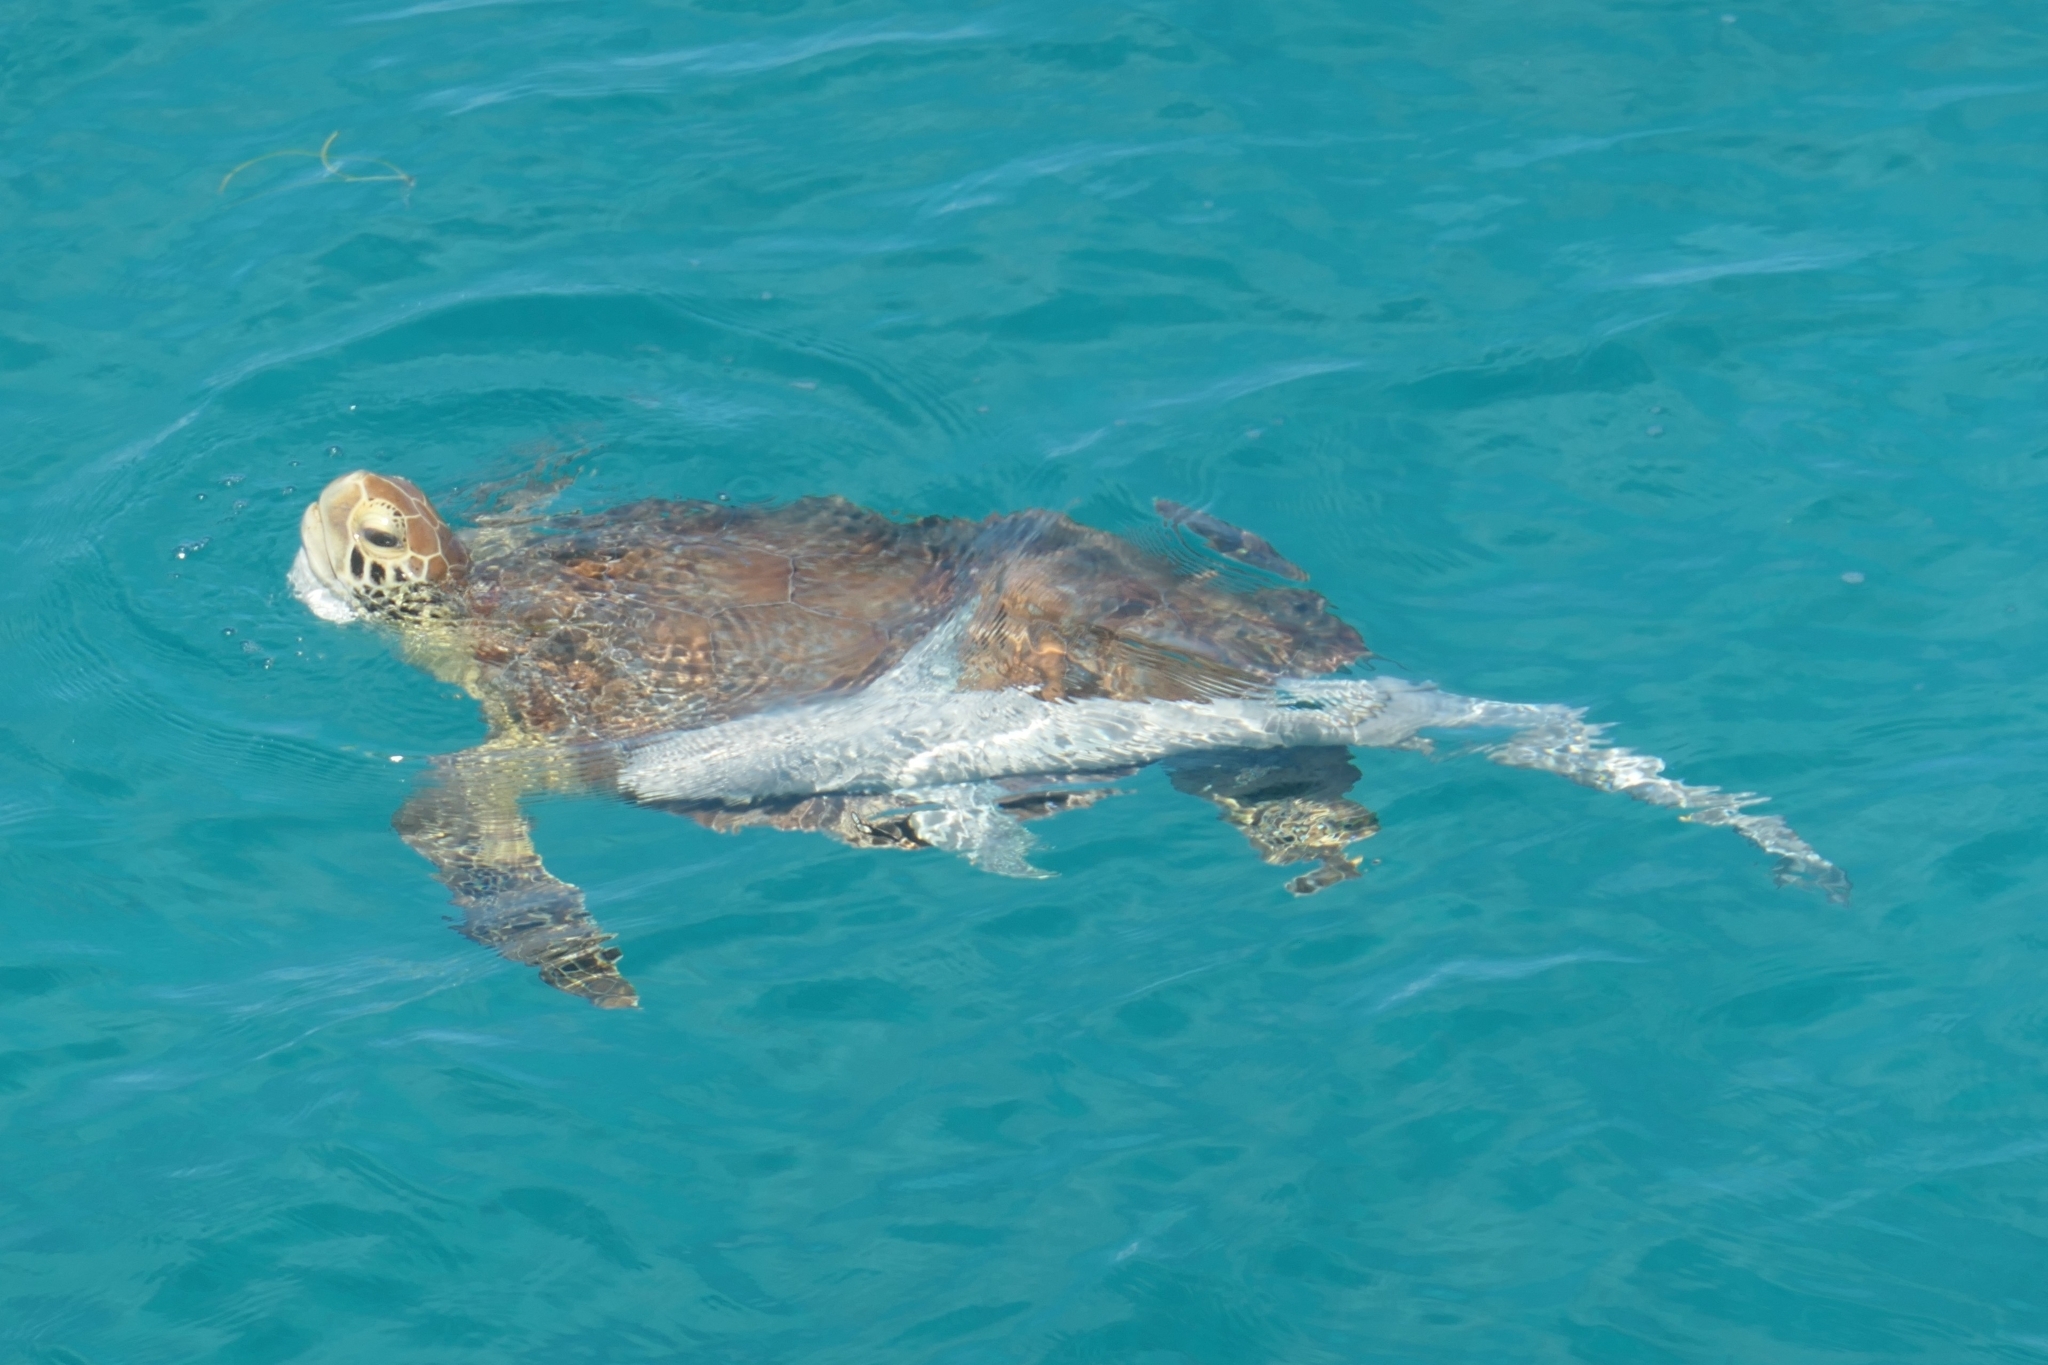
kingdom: Animalia
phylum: Chordata
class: Testudines
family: Cheloniidae
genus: Chelonia
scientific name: Chelonia mydas
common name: Green turtle
